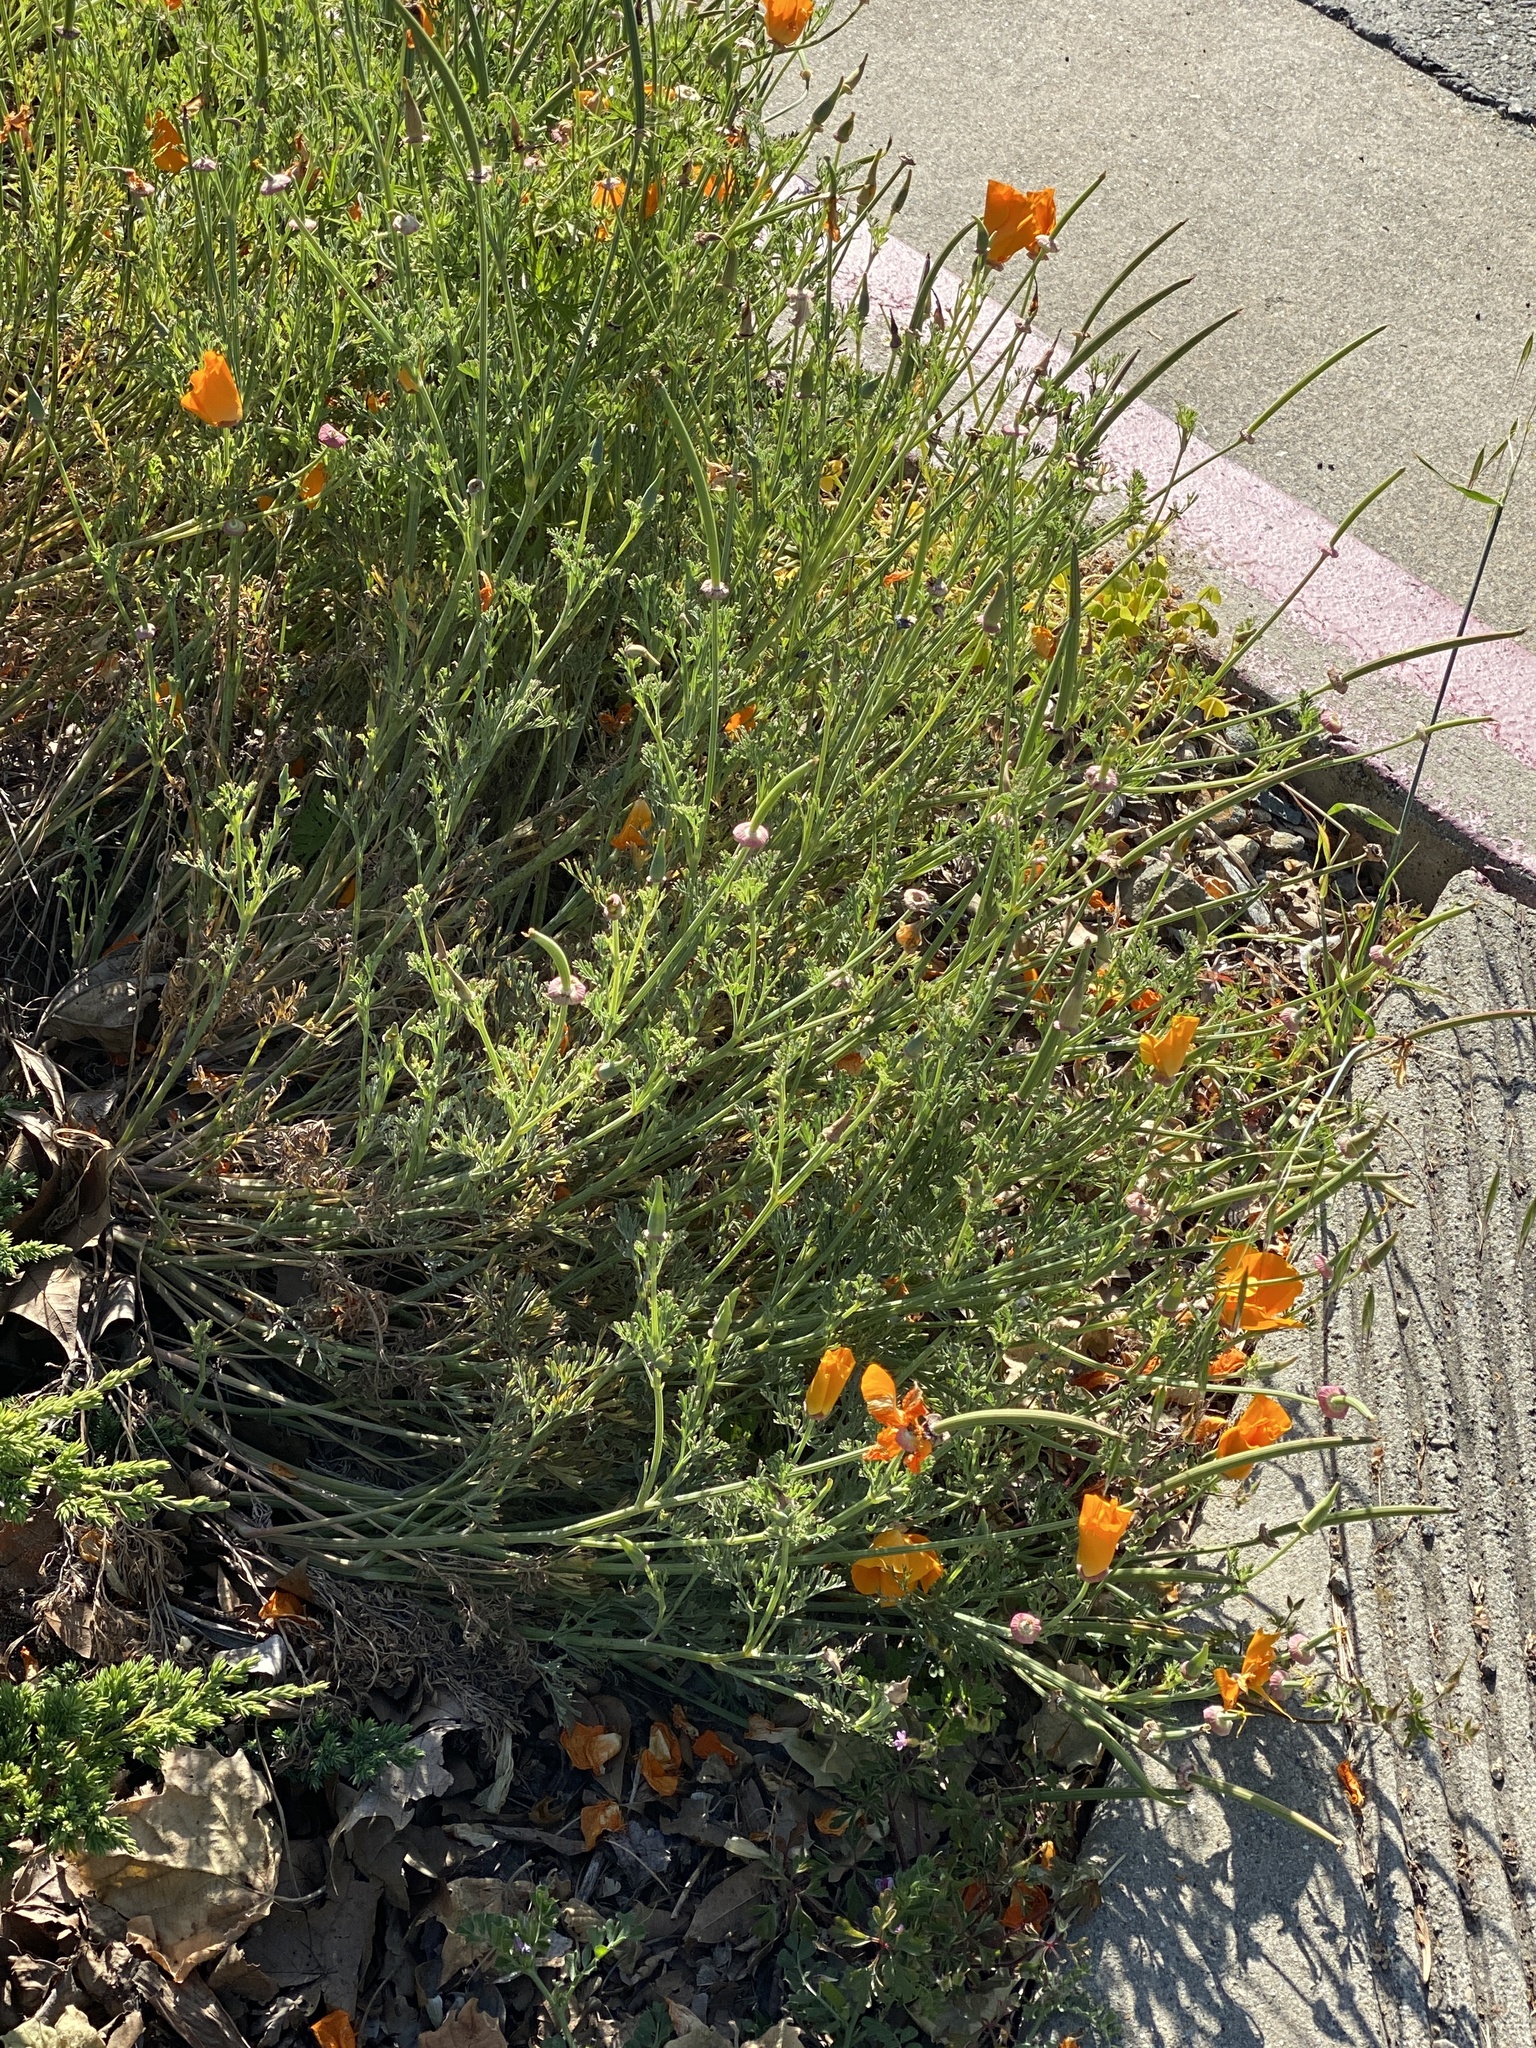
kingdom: Plantae
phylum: Tracheophyta
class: Magnoliopsida
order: Ranunculales
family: Papaveraceae
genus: Eschscholzia
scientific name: Eschscholzia californica
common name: California poppy
